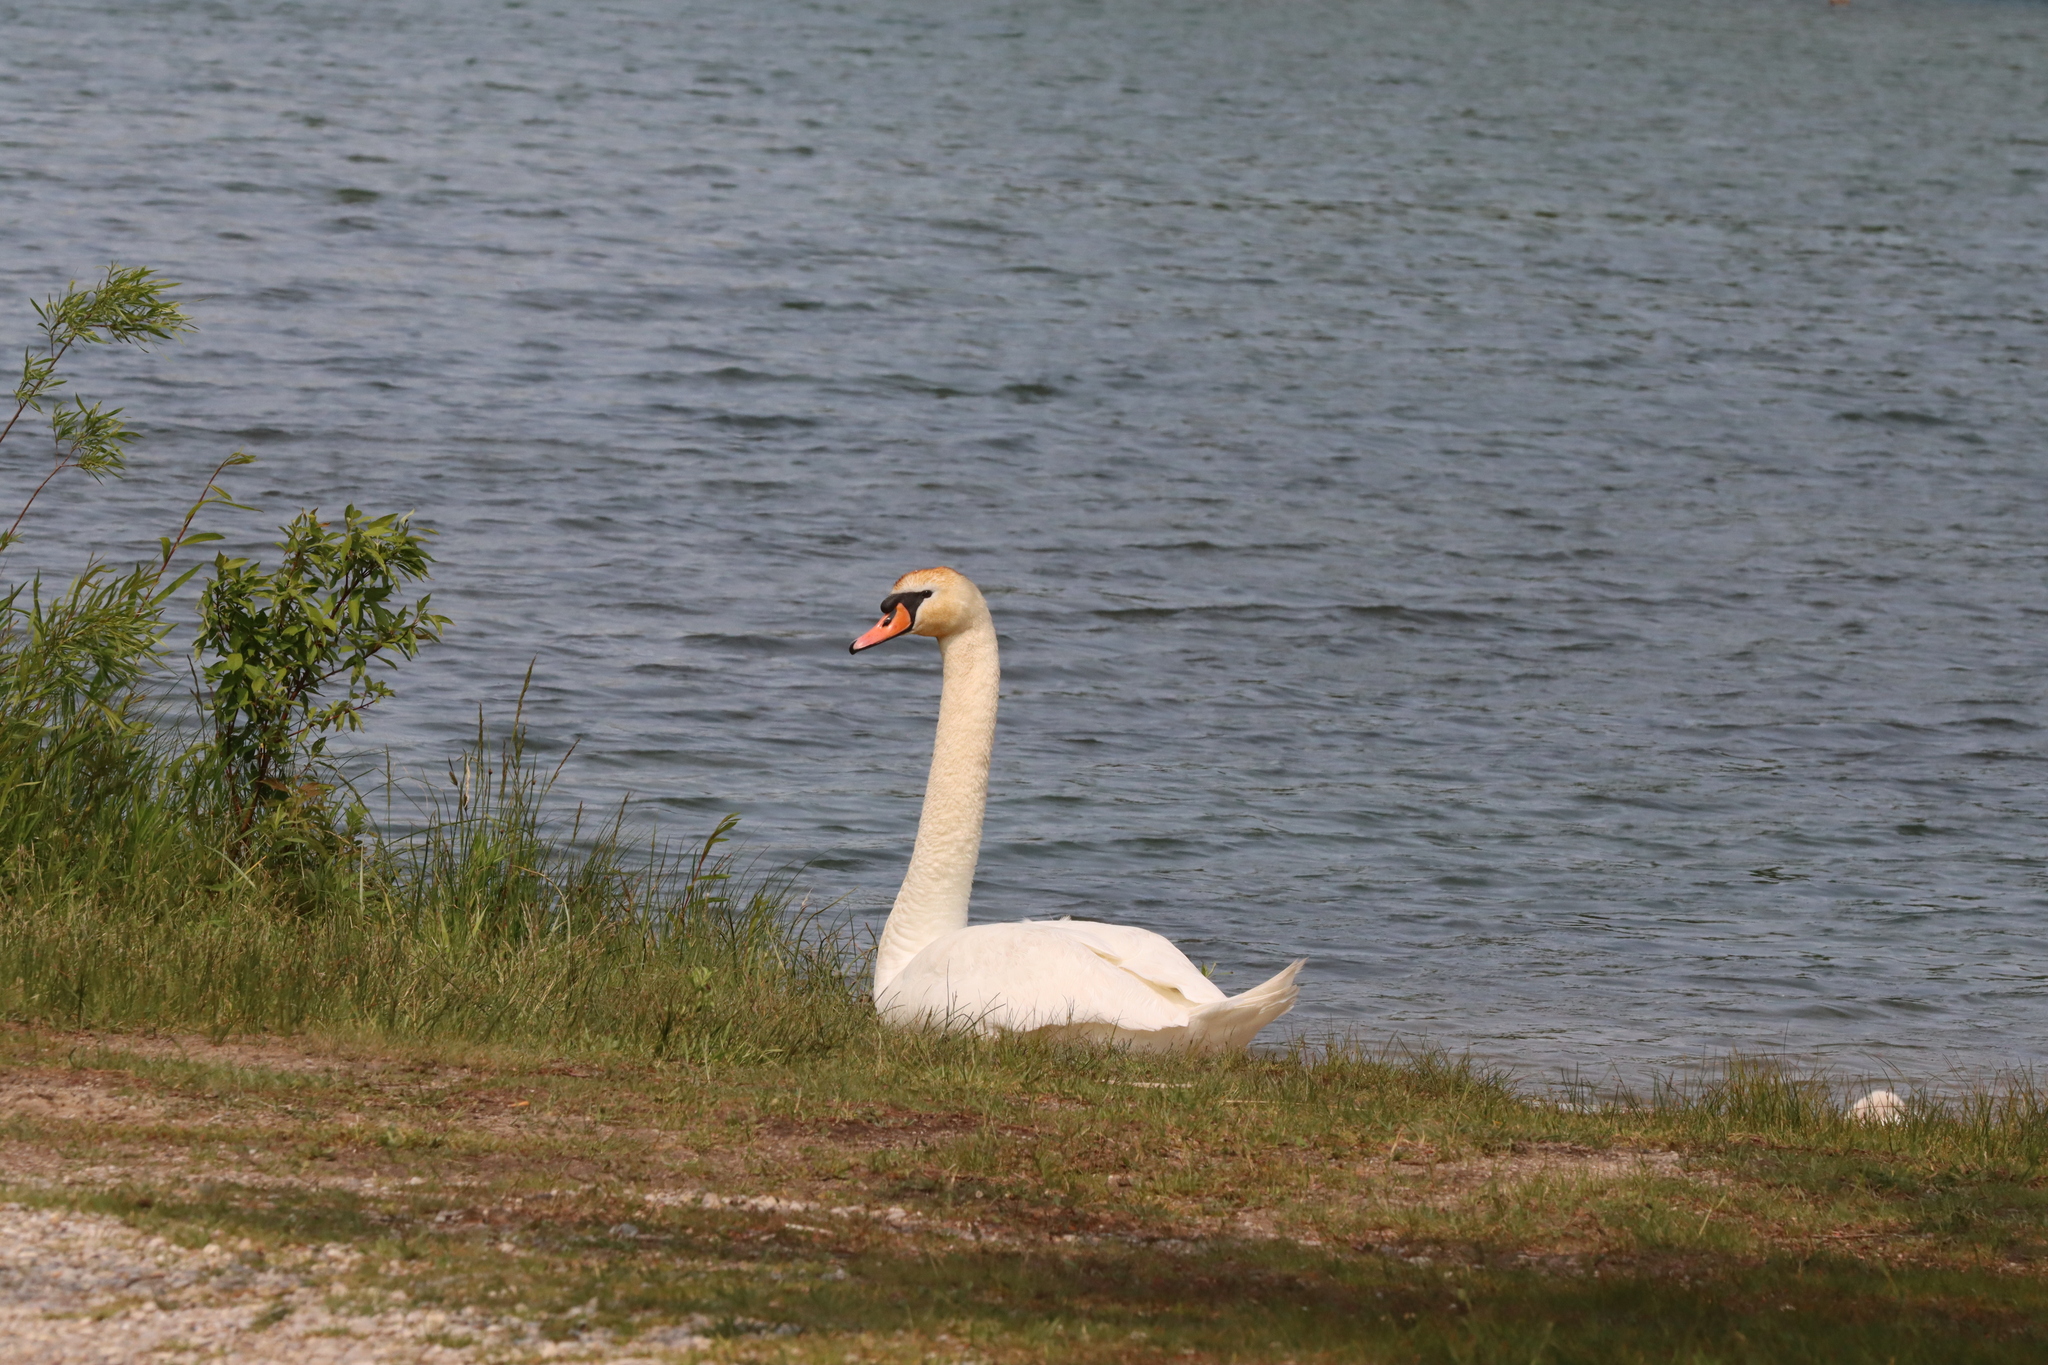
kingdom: Animalia
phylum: Chordata
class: Aves
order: Anseriformes
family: Anatidae
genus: Cygnus
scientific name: Cygnus olor
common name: Mute swan
